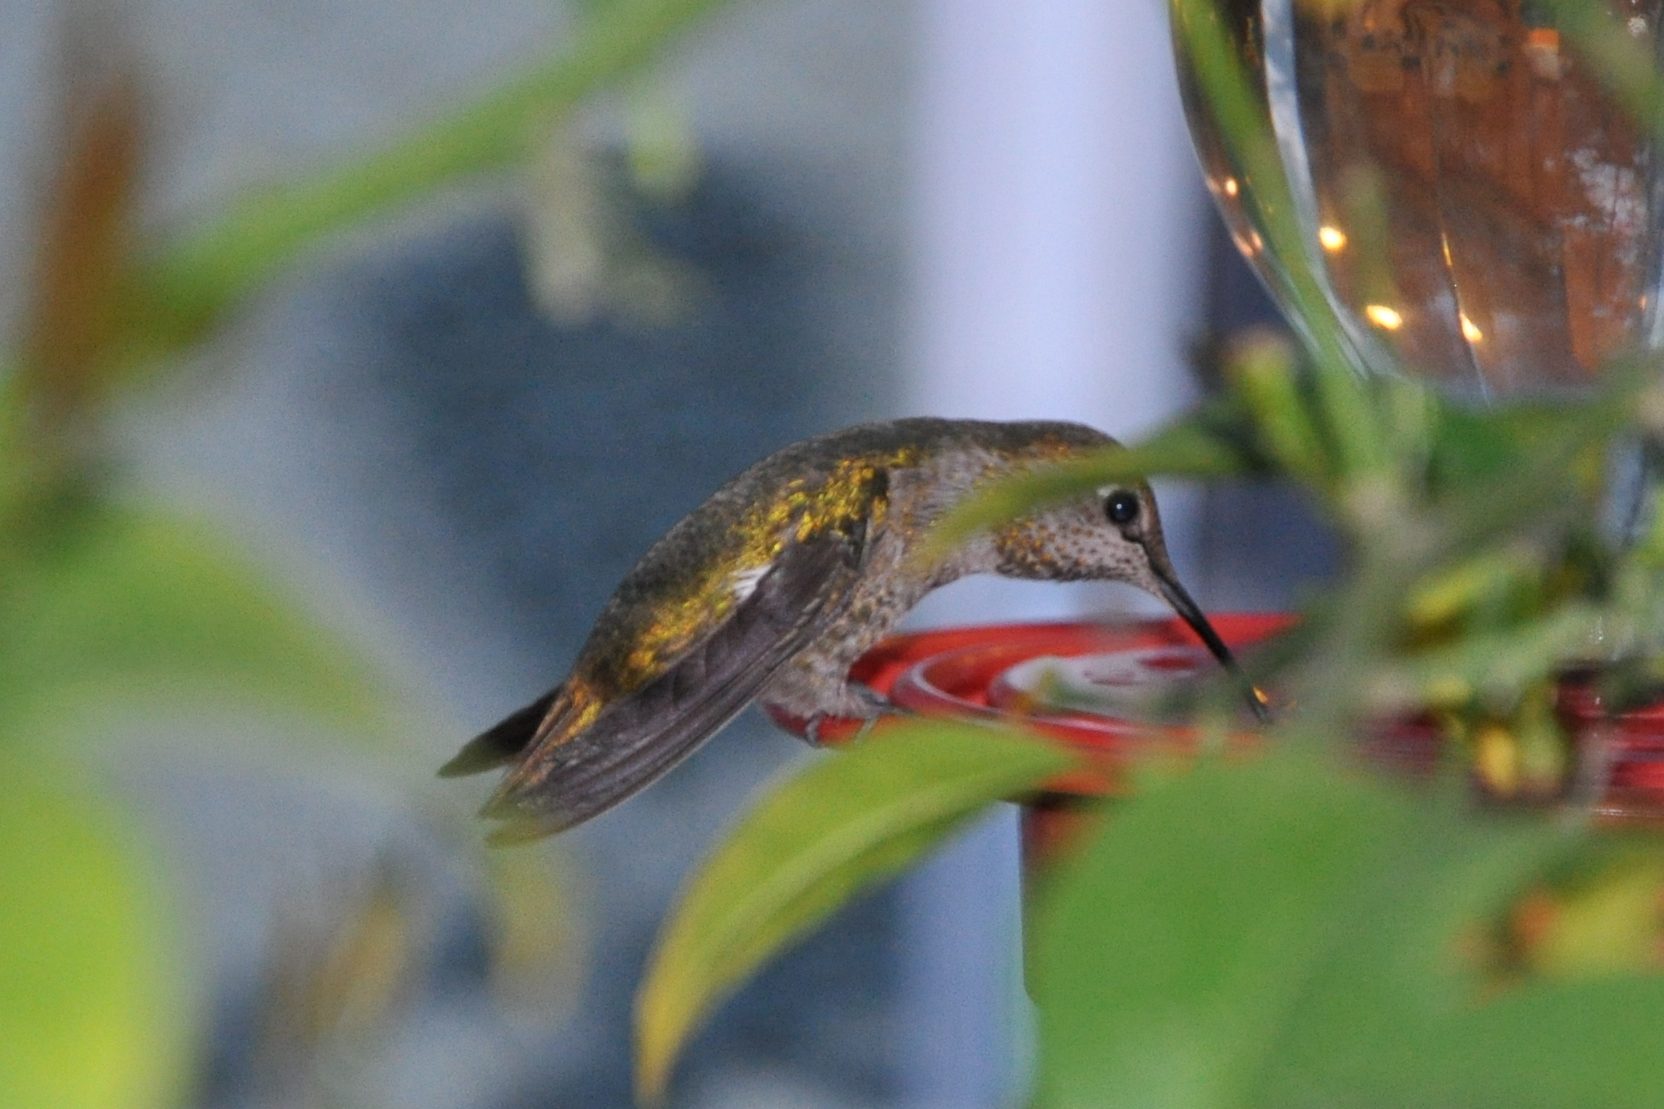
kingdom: Animalia
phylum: Chordata
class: Aves
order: Apodiformes
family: Trochilidae
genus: Calypte
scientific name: Calypte anna
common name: Anna's hummingbird
